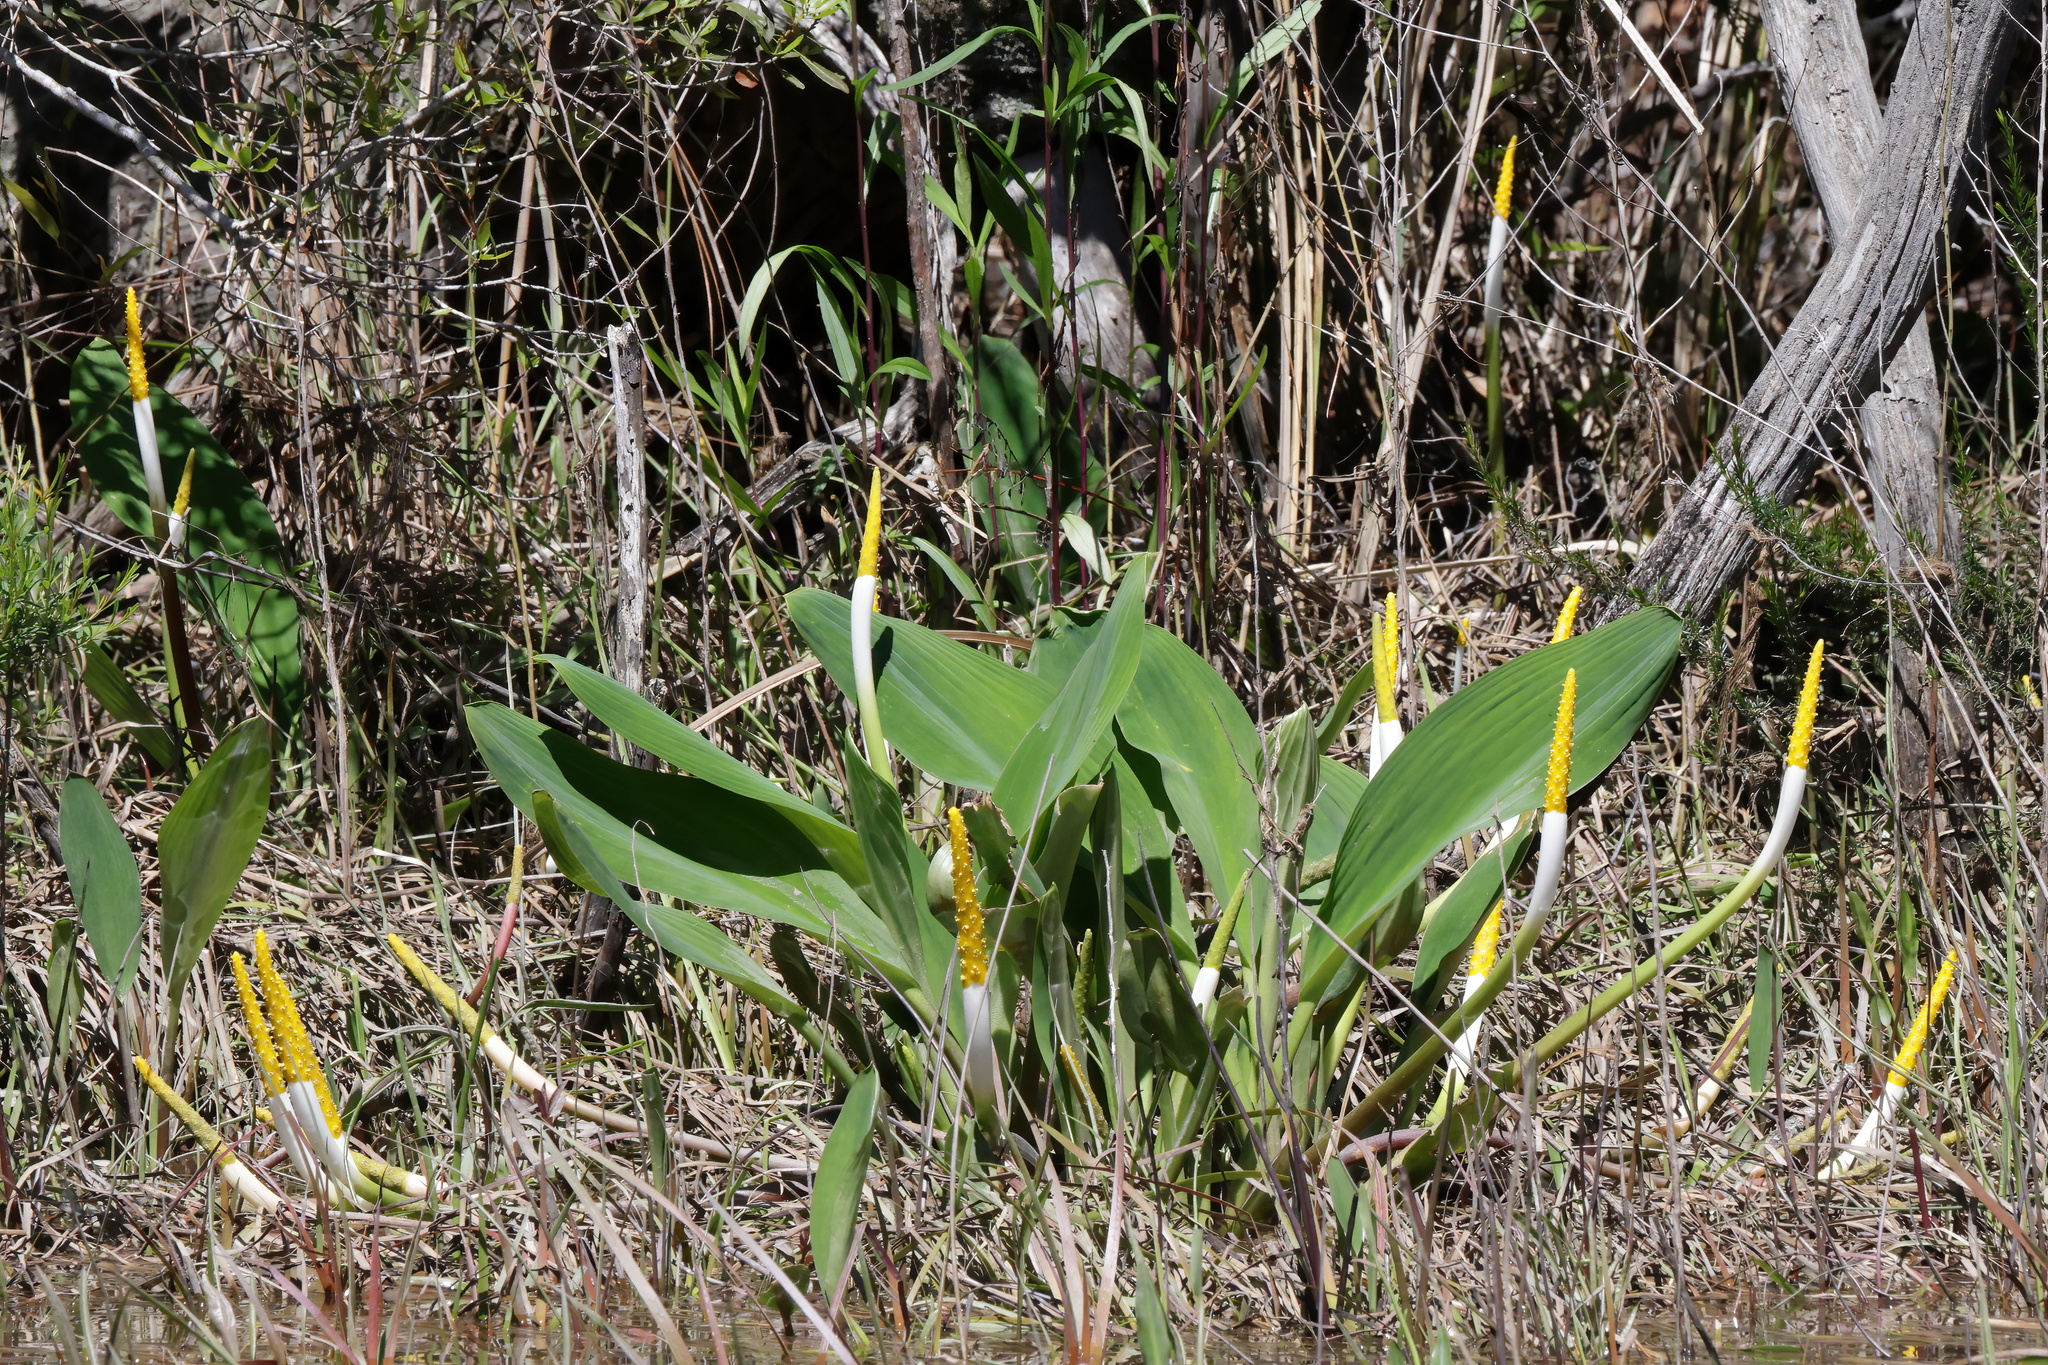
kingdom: Plantae
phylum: Tracheophyta
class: Liliopsida
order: Alismatales
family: Araceae
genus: Orontium
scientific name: Orontium aquaticum
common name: Golden-club
